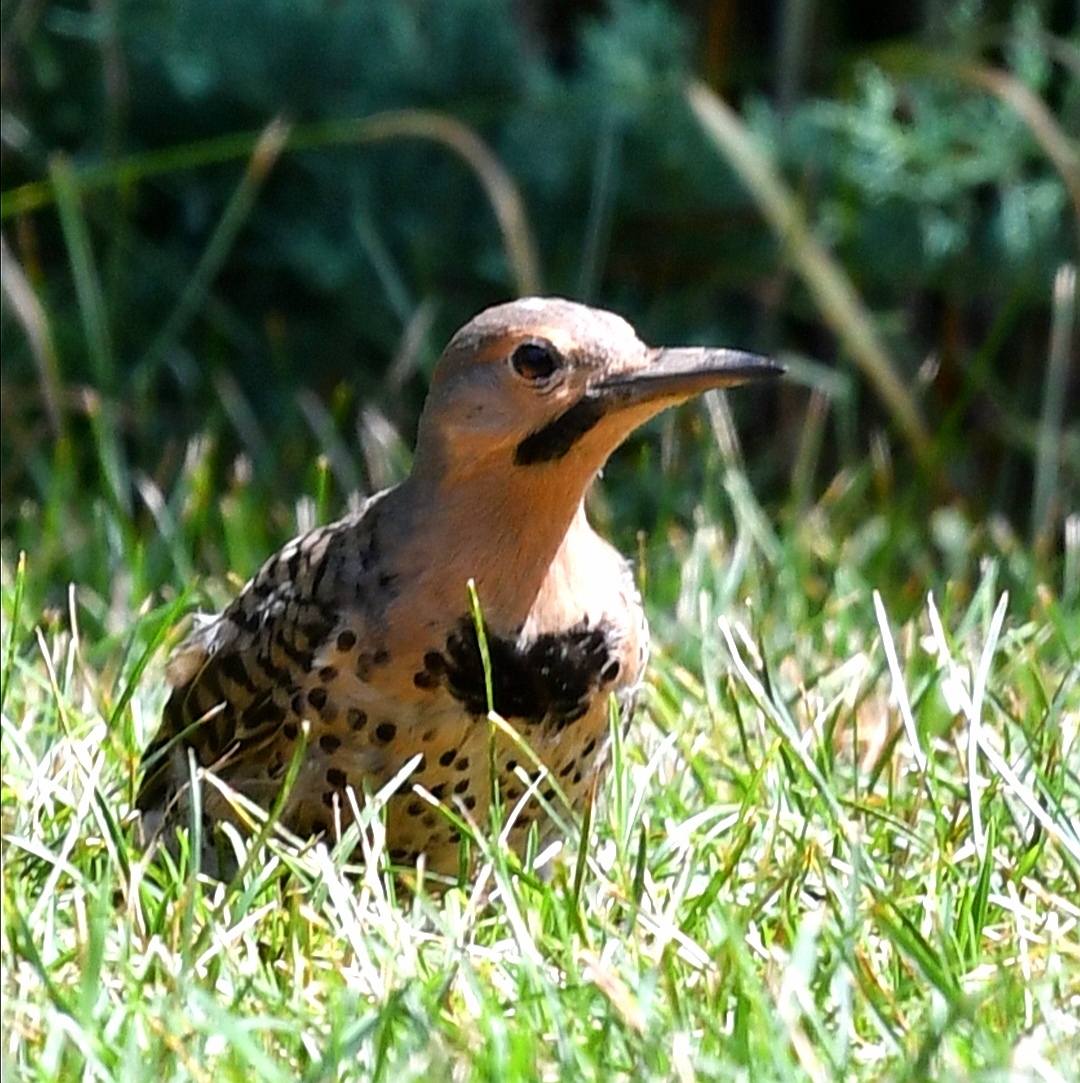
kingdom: Animalia
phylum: Chordata
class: Aves
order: Piciformes
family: Picidae
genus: Colaptes
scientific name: Colaptes auratus
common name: Northern flicker
